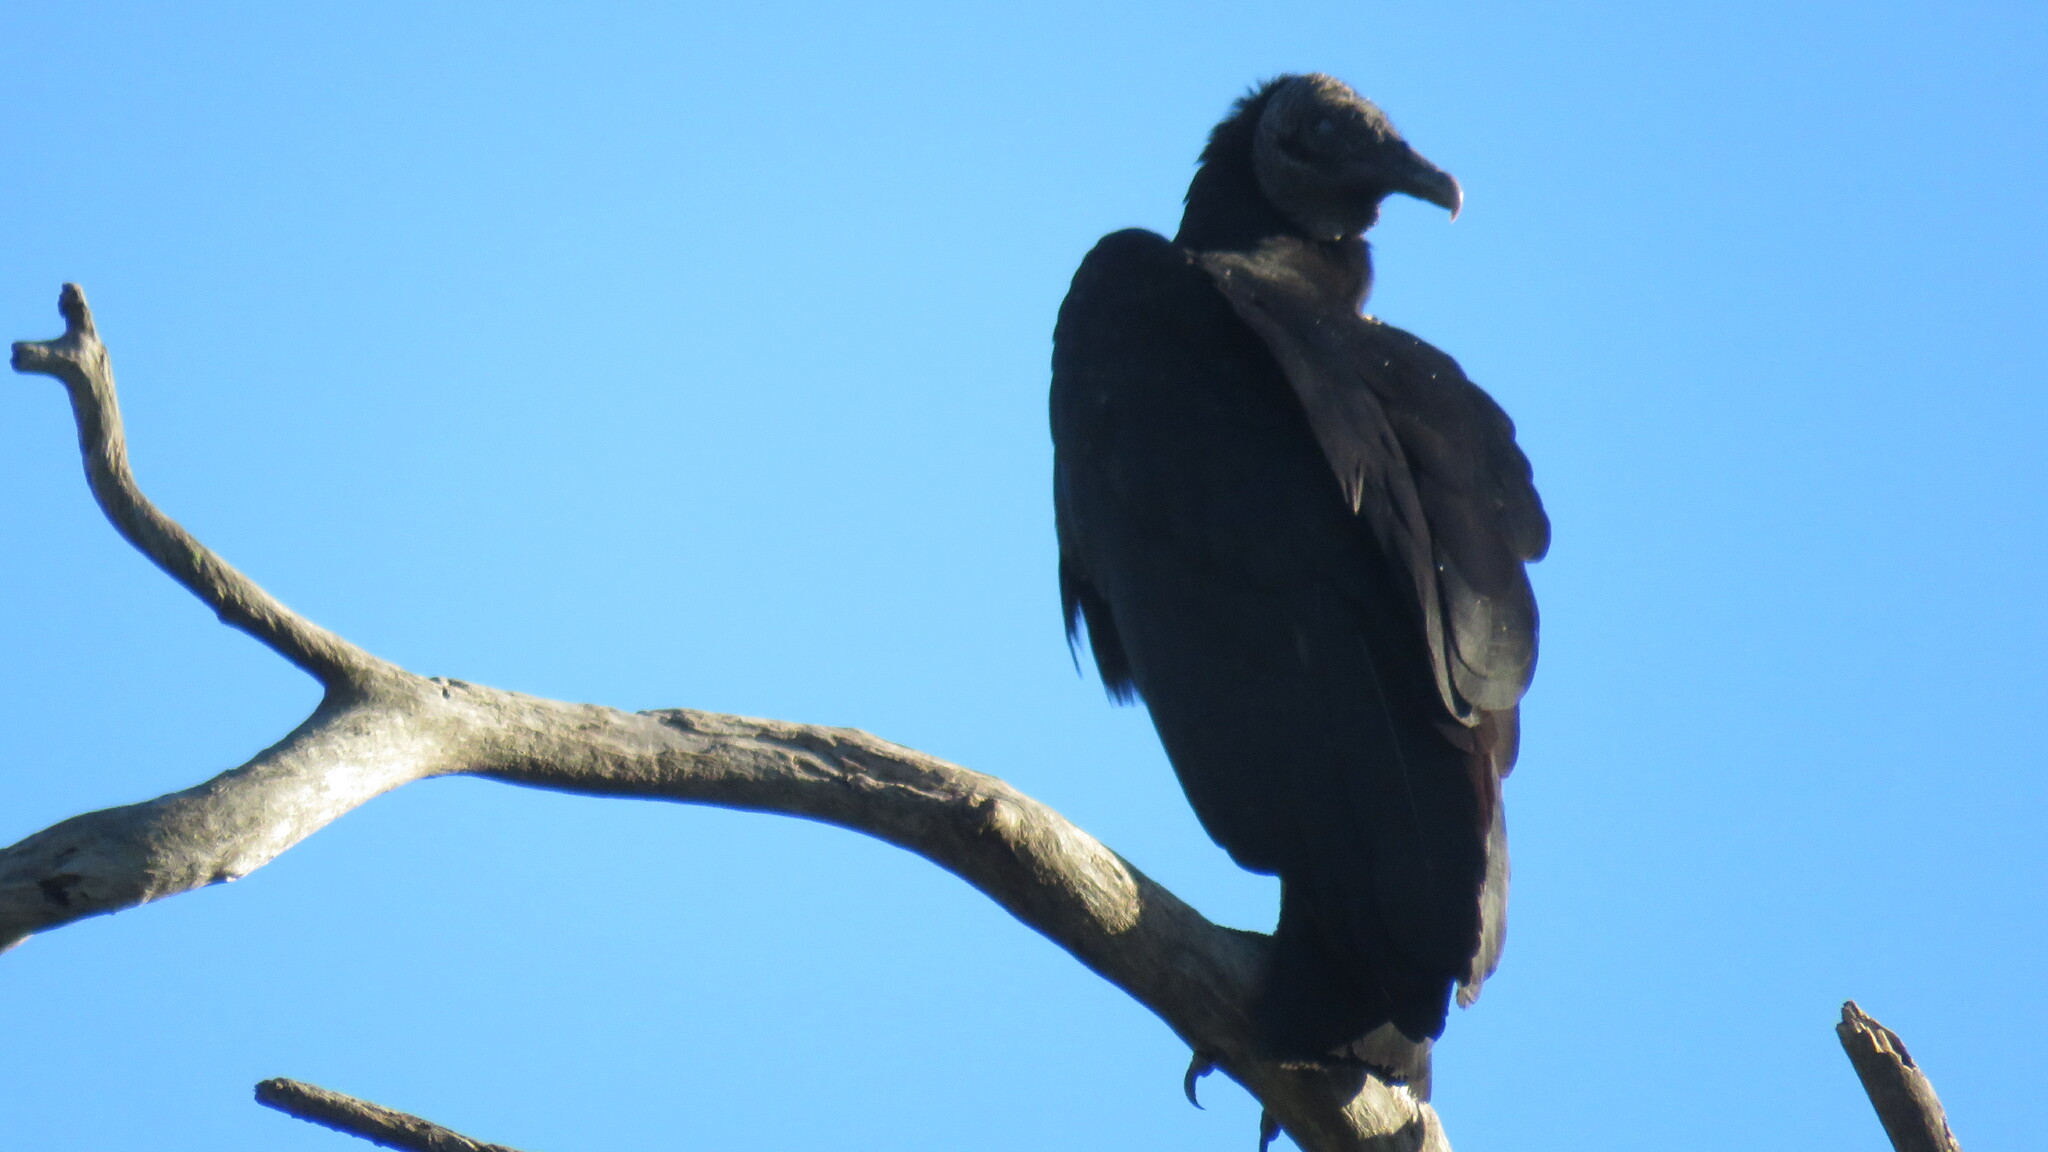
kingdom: Animalia
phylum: Chordata
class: Aves
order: Accipitriformes
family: Cathartidae
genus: Coragyps
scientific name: Coragyps atratus
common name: Black vulture
